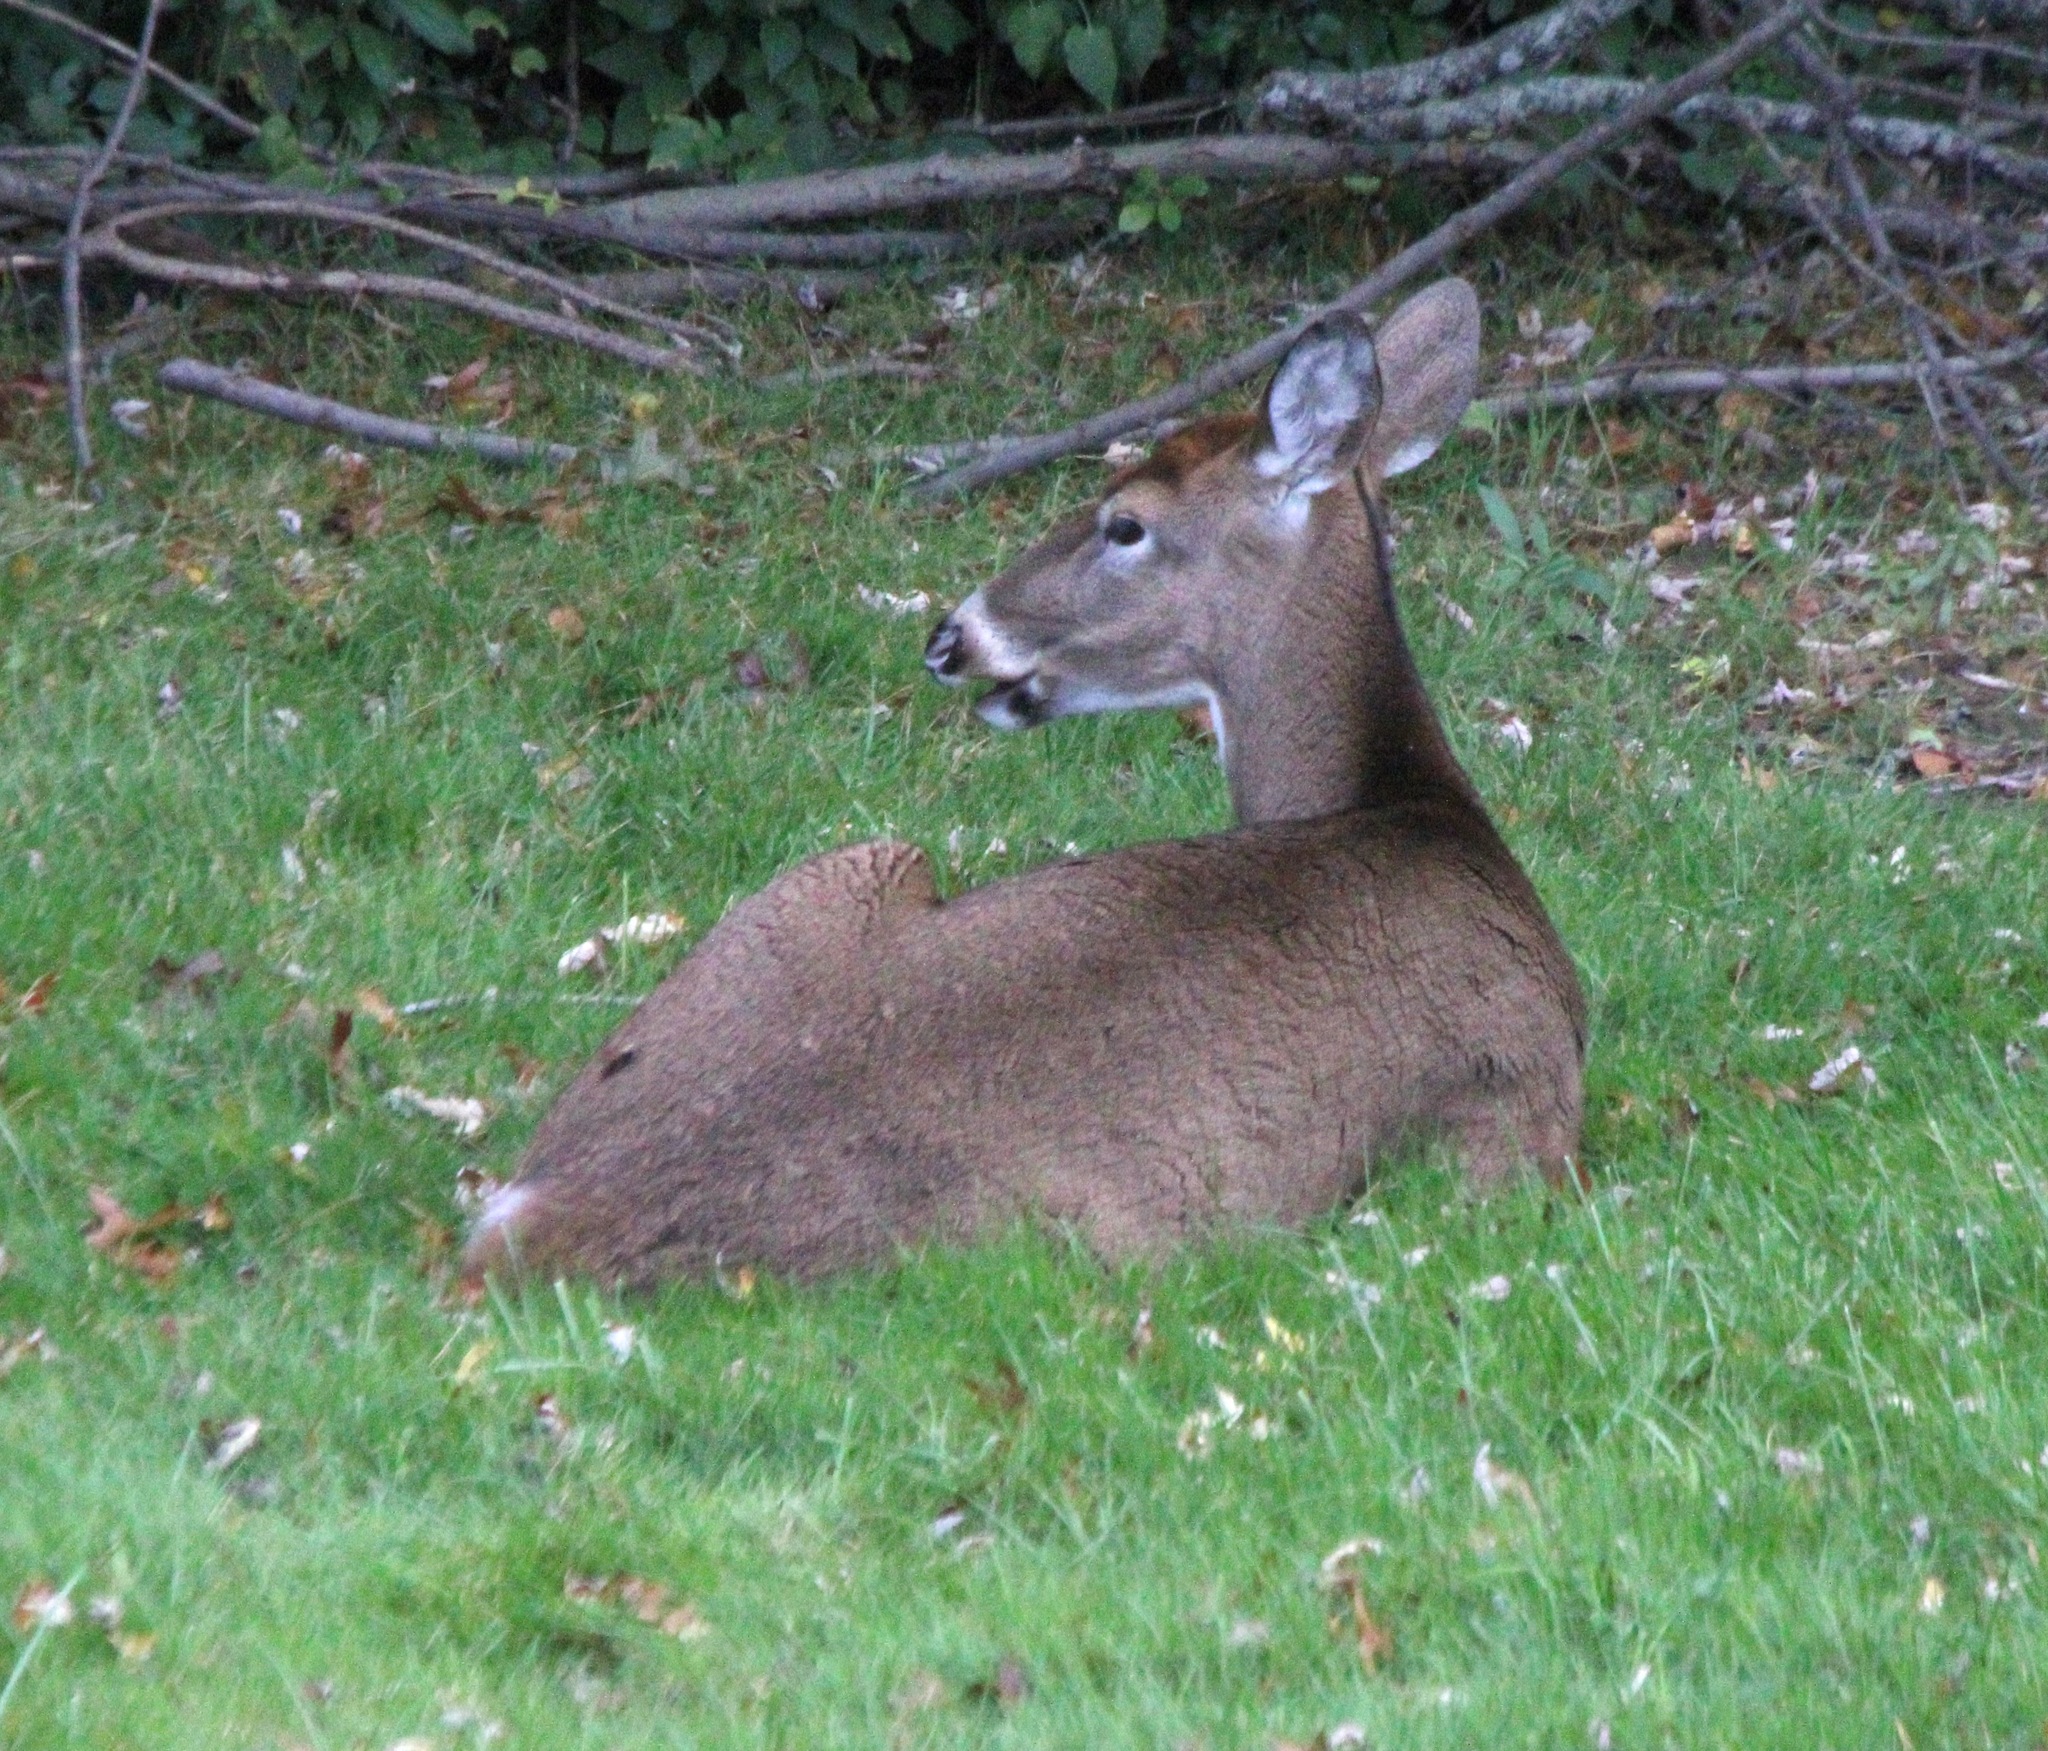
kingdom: Animalia
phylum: Chordata
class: Mammalia
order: Artiodactyla
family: Cervidae
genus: Odocoileus
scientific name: Odocoileus virginianus
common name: White-tailed deer
